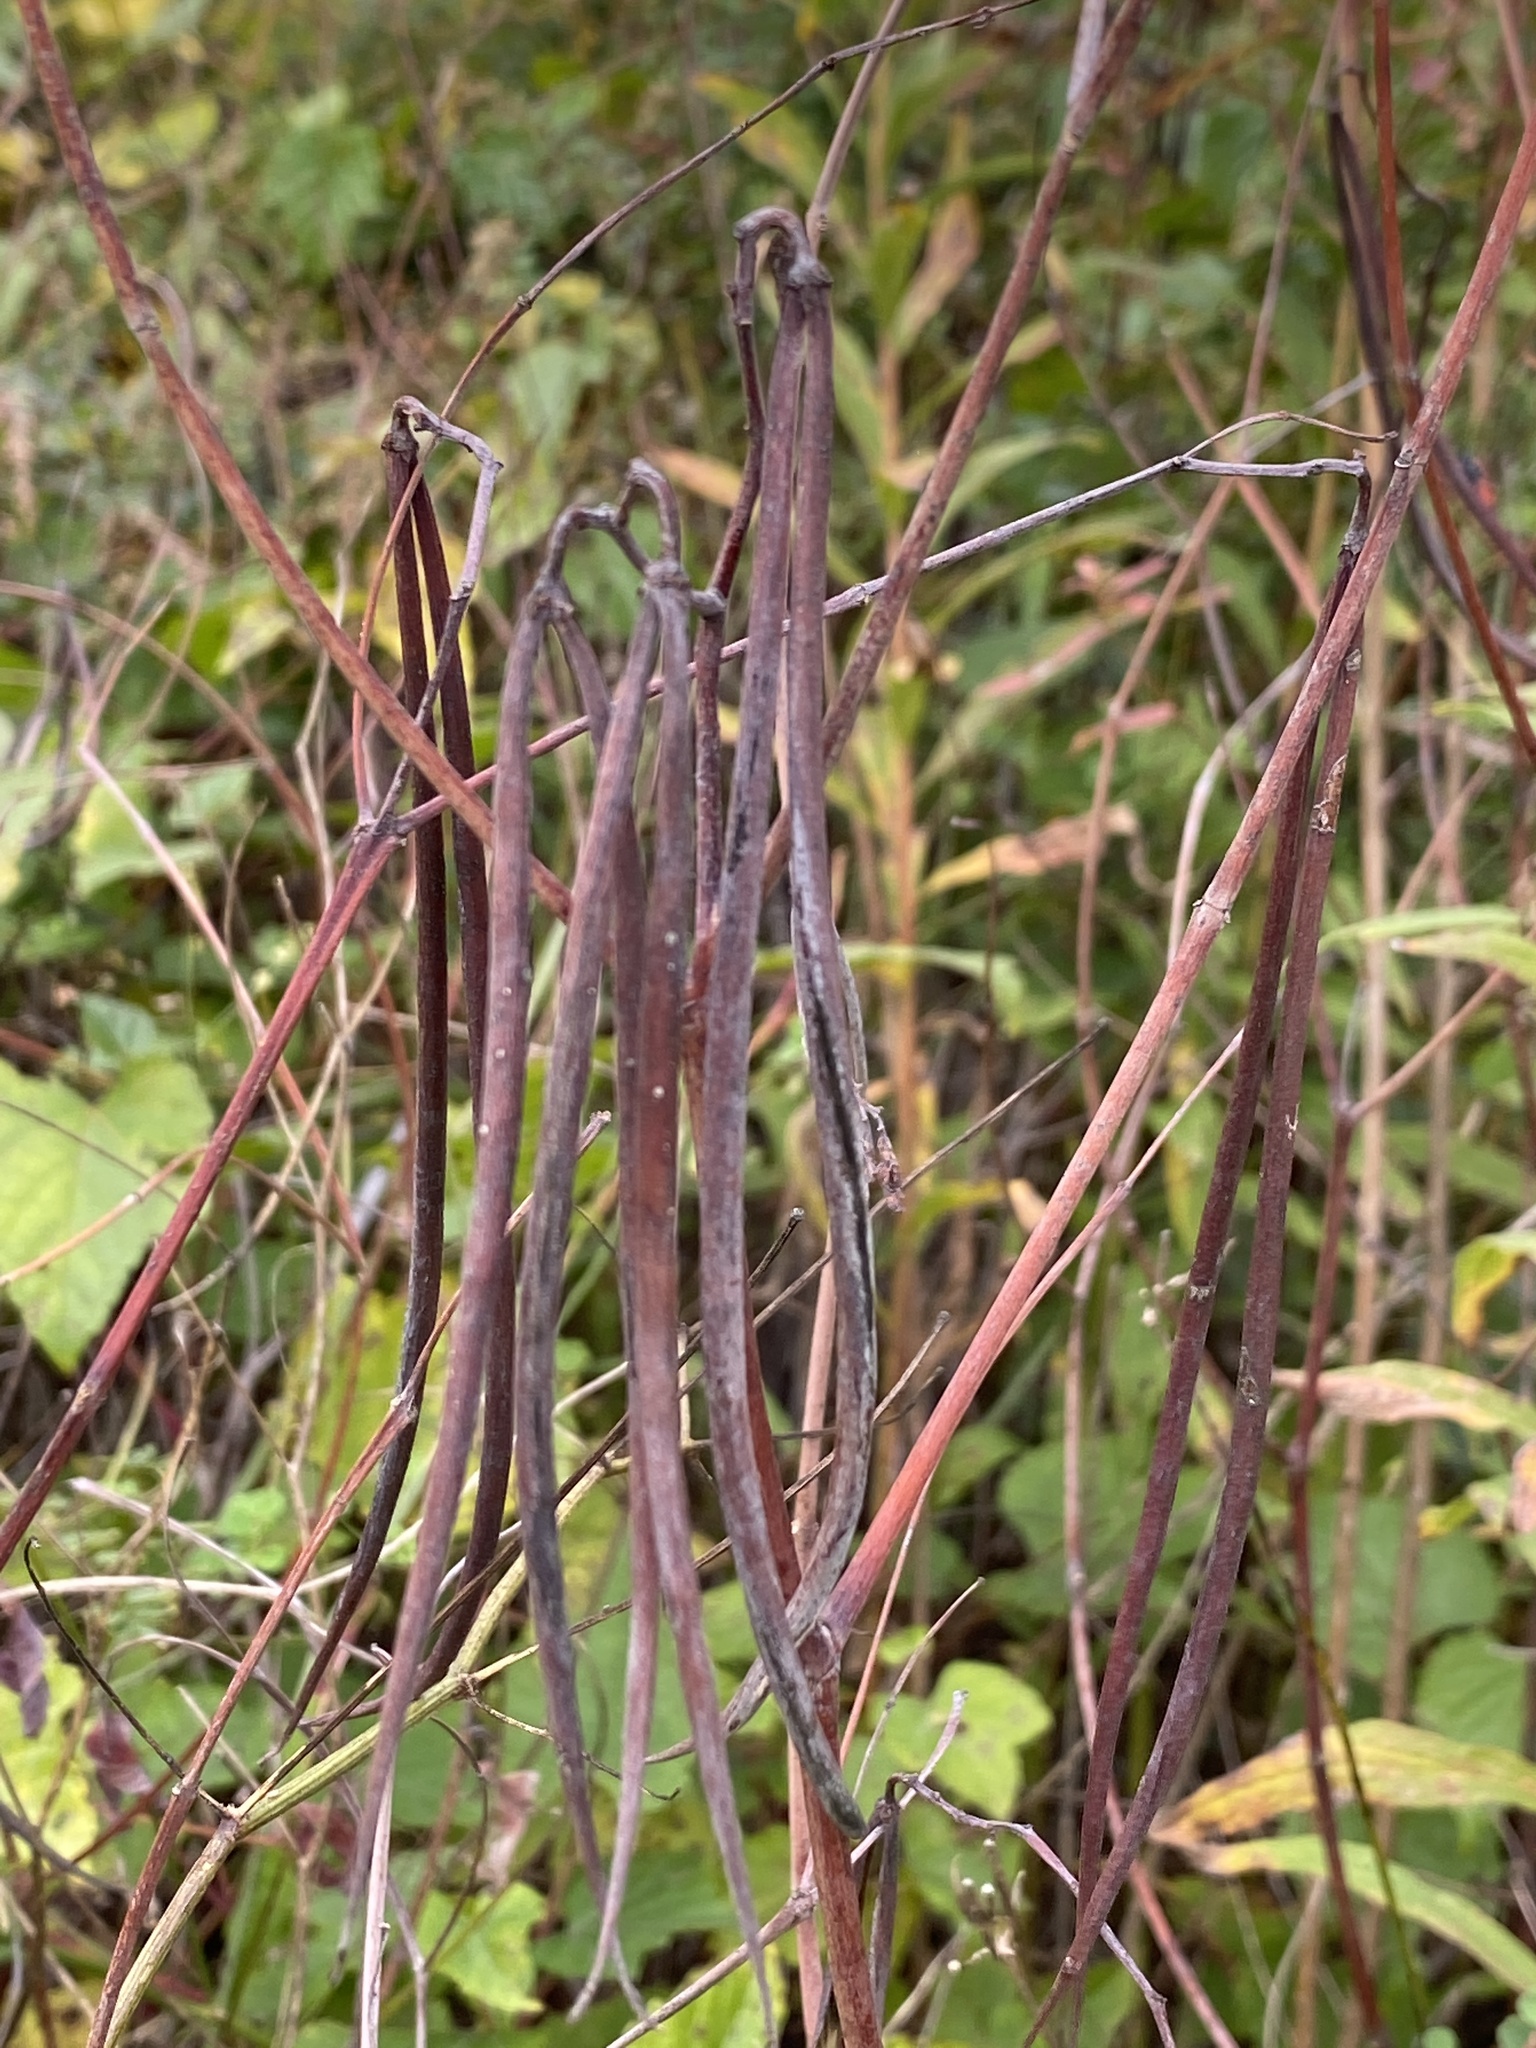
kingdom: Plantae
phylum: Tracheophyta
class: Magnoliopsida
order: Gentianales
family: Apocynaceae
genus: Apocynum
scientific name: Apocynum cannabinum
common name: Hemp dogbane
